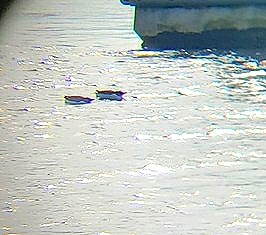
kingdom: Animalia
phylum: Chordata
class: Aves
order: Charadriiformes
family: Alcidae
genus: Uria
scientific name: Uria lomvia
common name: Thick-billed murre
